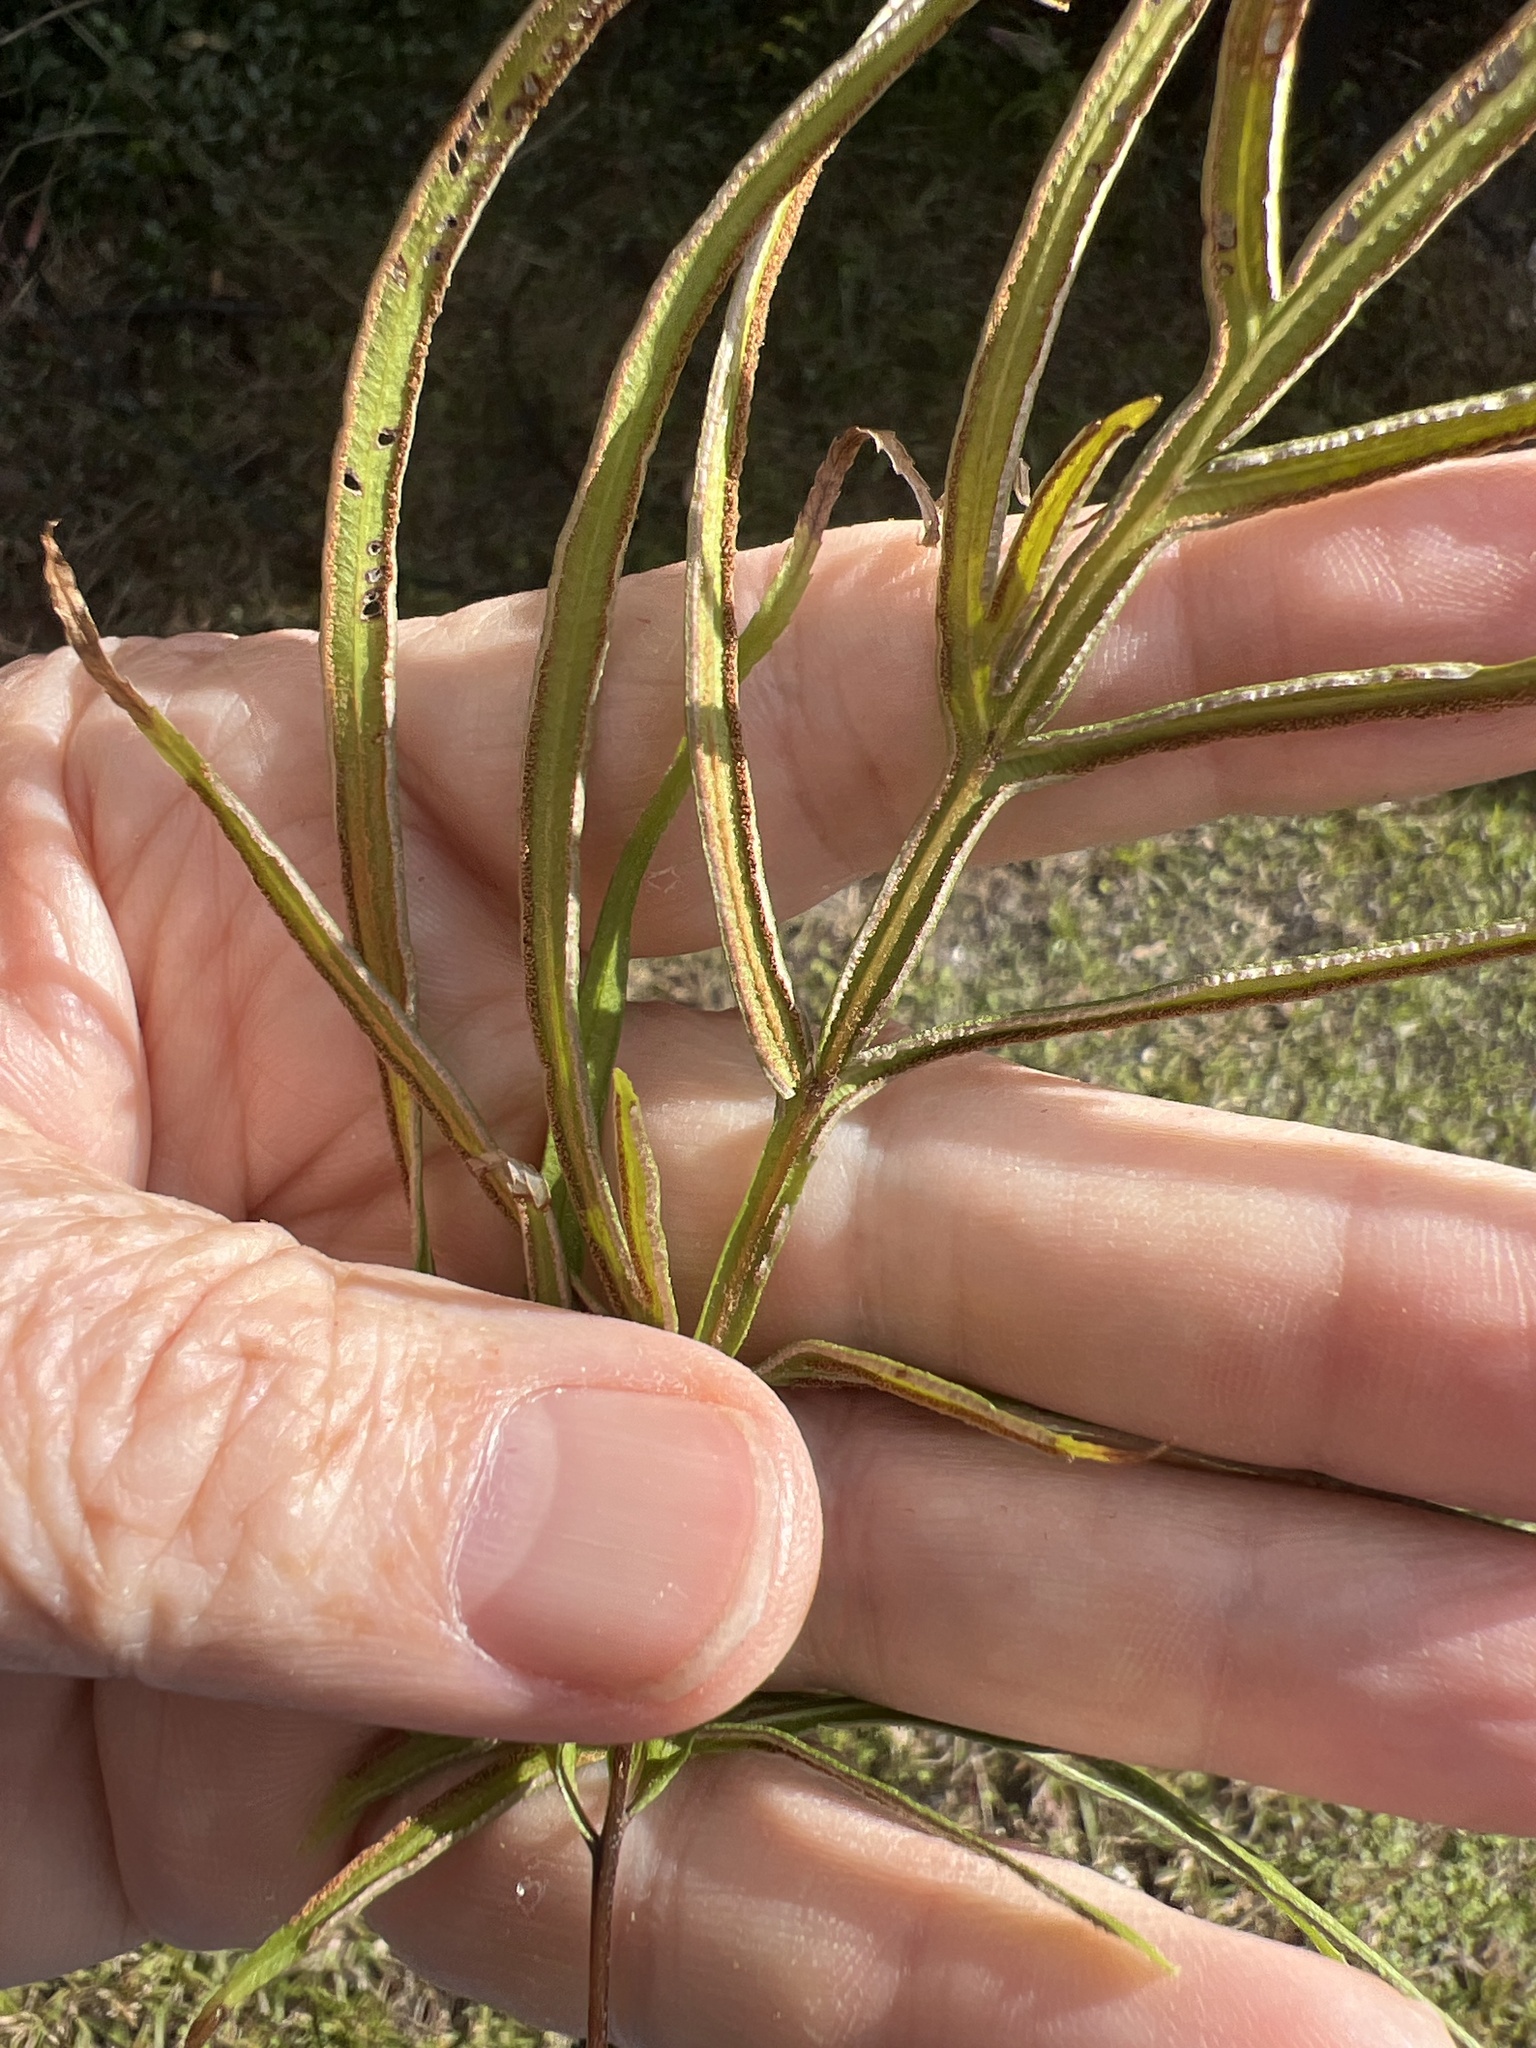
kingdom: Plantae
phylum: Tracheophyta
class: Polypodiopsida
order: Polypodiales
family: Pteridaceae
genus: Pteris
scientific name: Pteris multifida
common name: Spider brake
